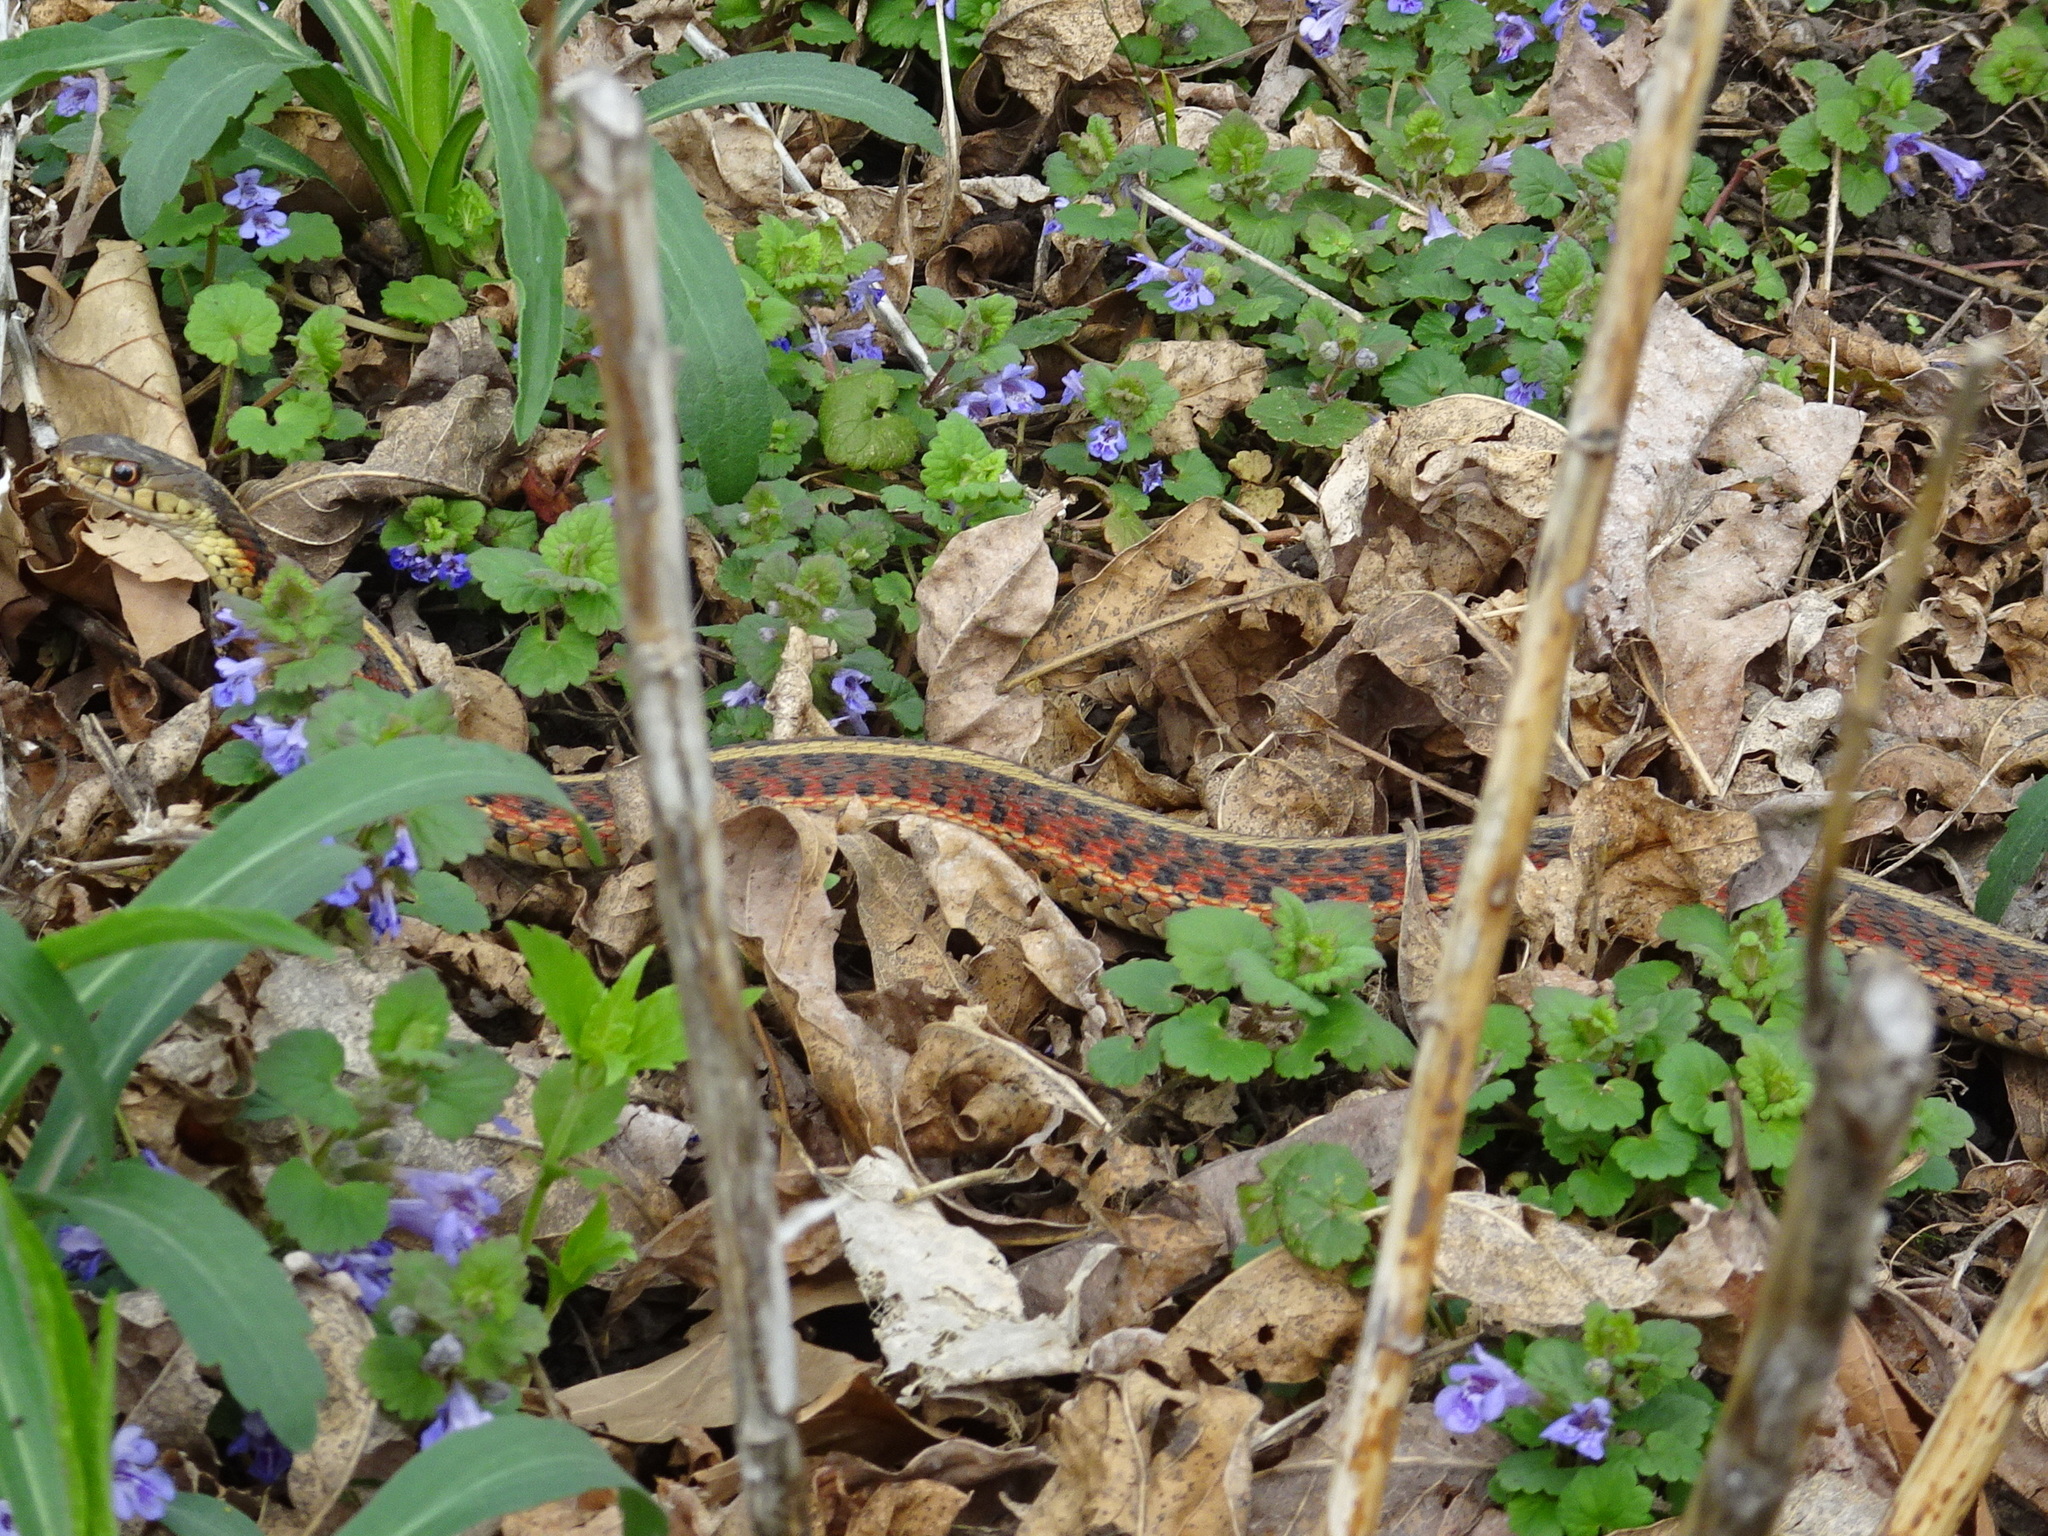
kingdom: Animalia
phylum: Chordata
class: Squamata
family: Colubridae
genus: Thamnophis
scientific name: Thamnophis sirtalis
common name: Common garter snake
